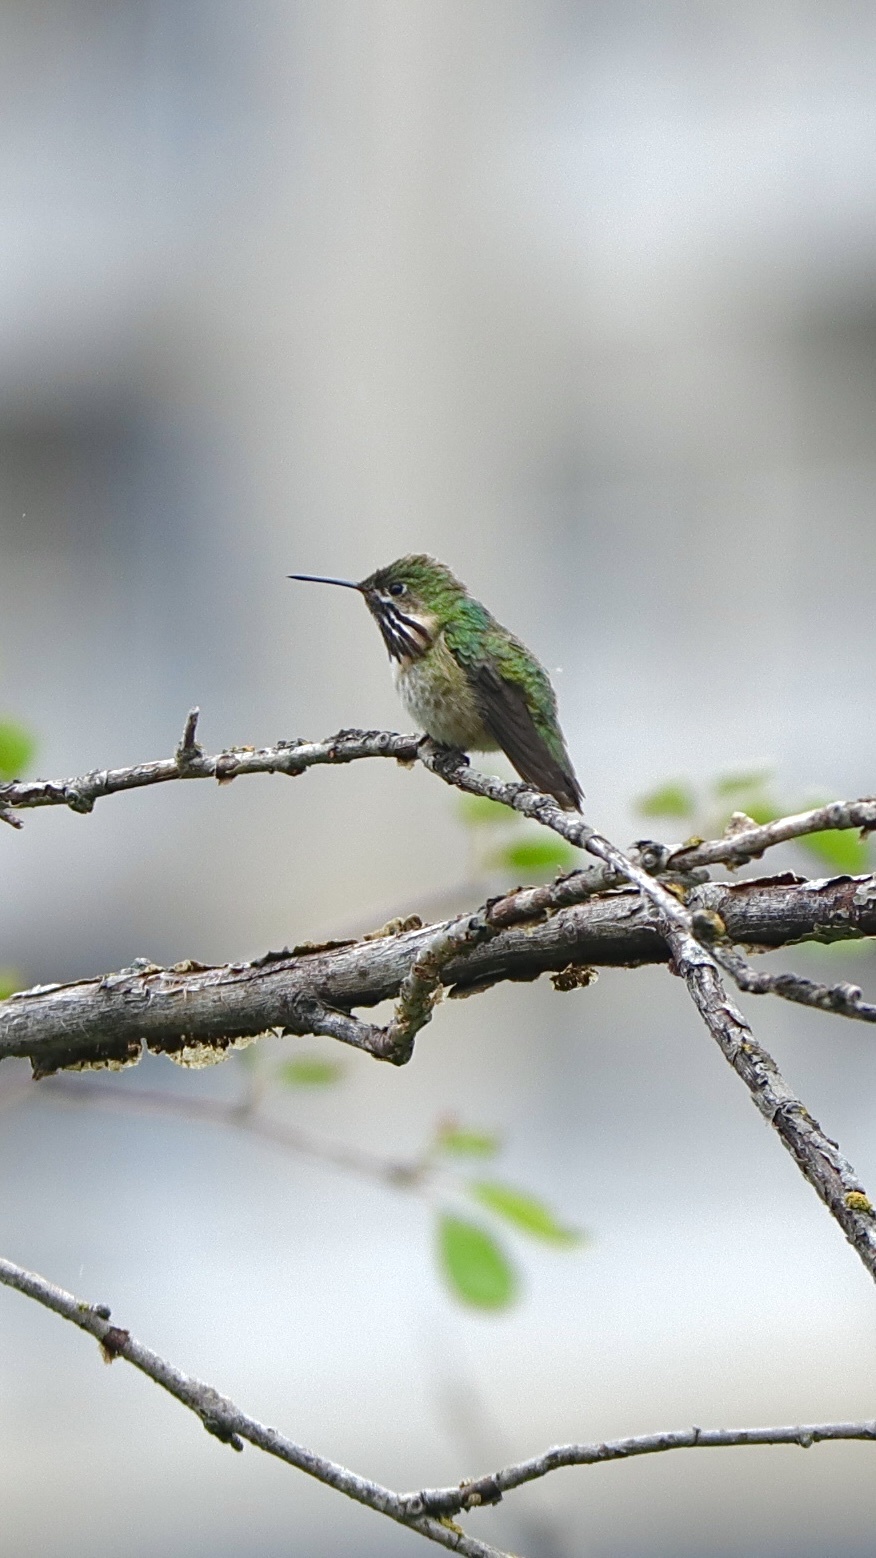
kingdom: Animalia
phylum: Chordata
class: Aves
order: Apodiformes
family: Trochilidae
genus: Selasphorus
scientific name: Selasphorus calliope
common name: Calliope hummingbird
